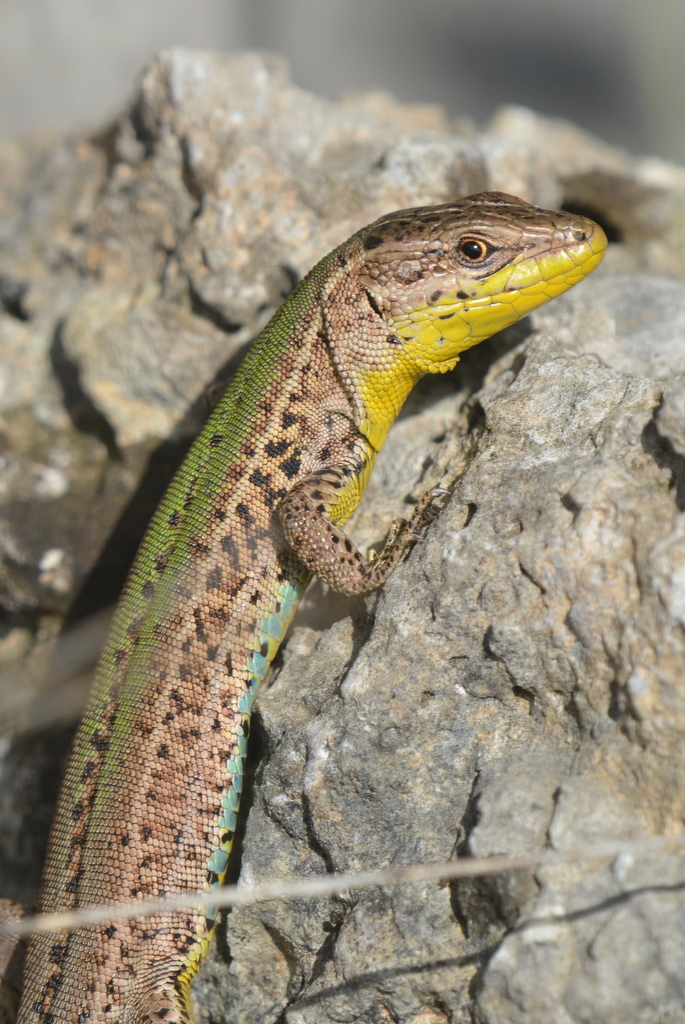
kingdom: Animalia
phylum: Chordata
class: Squamata
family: Lacertidae
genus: Podarcis
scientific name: Podarcis melisellensis
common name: Dalmatian wall lizard
